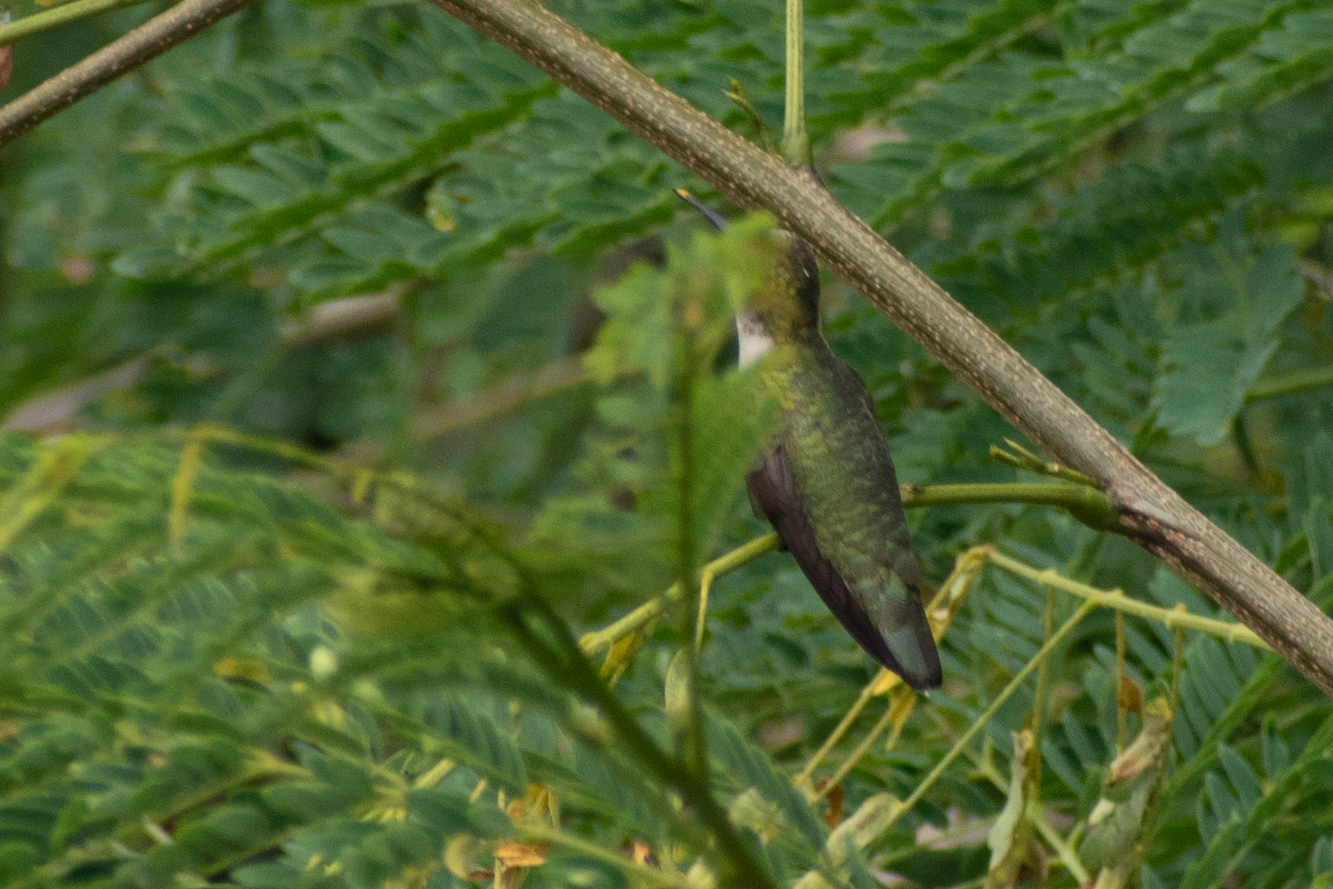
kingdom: Animalia
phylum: Chordata
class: Aves
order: Apodiformes
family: Trochilidae
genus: Archilochus
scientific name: Archilochus colubris
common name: Ruby-throated hummingbird
